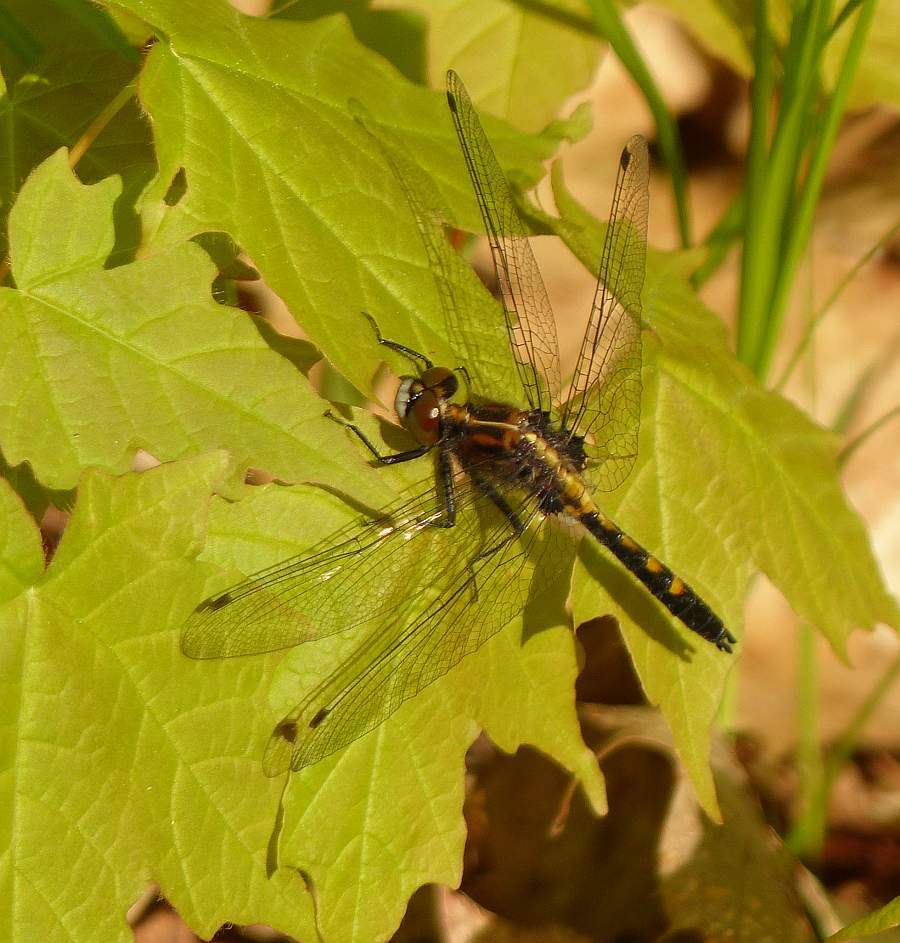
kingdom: Animalia
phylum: Arthropoda
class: Insecta
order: Odonata
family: Libellulidae
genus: Leucorrhinia
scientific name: Leucorrhinia intacta
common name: Dot-tailed whiteface
